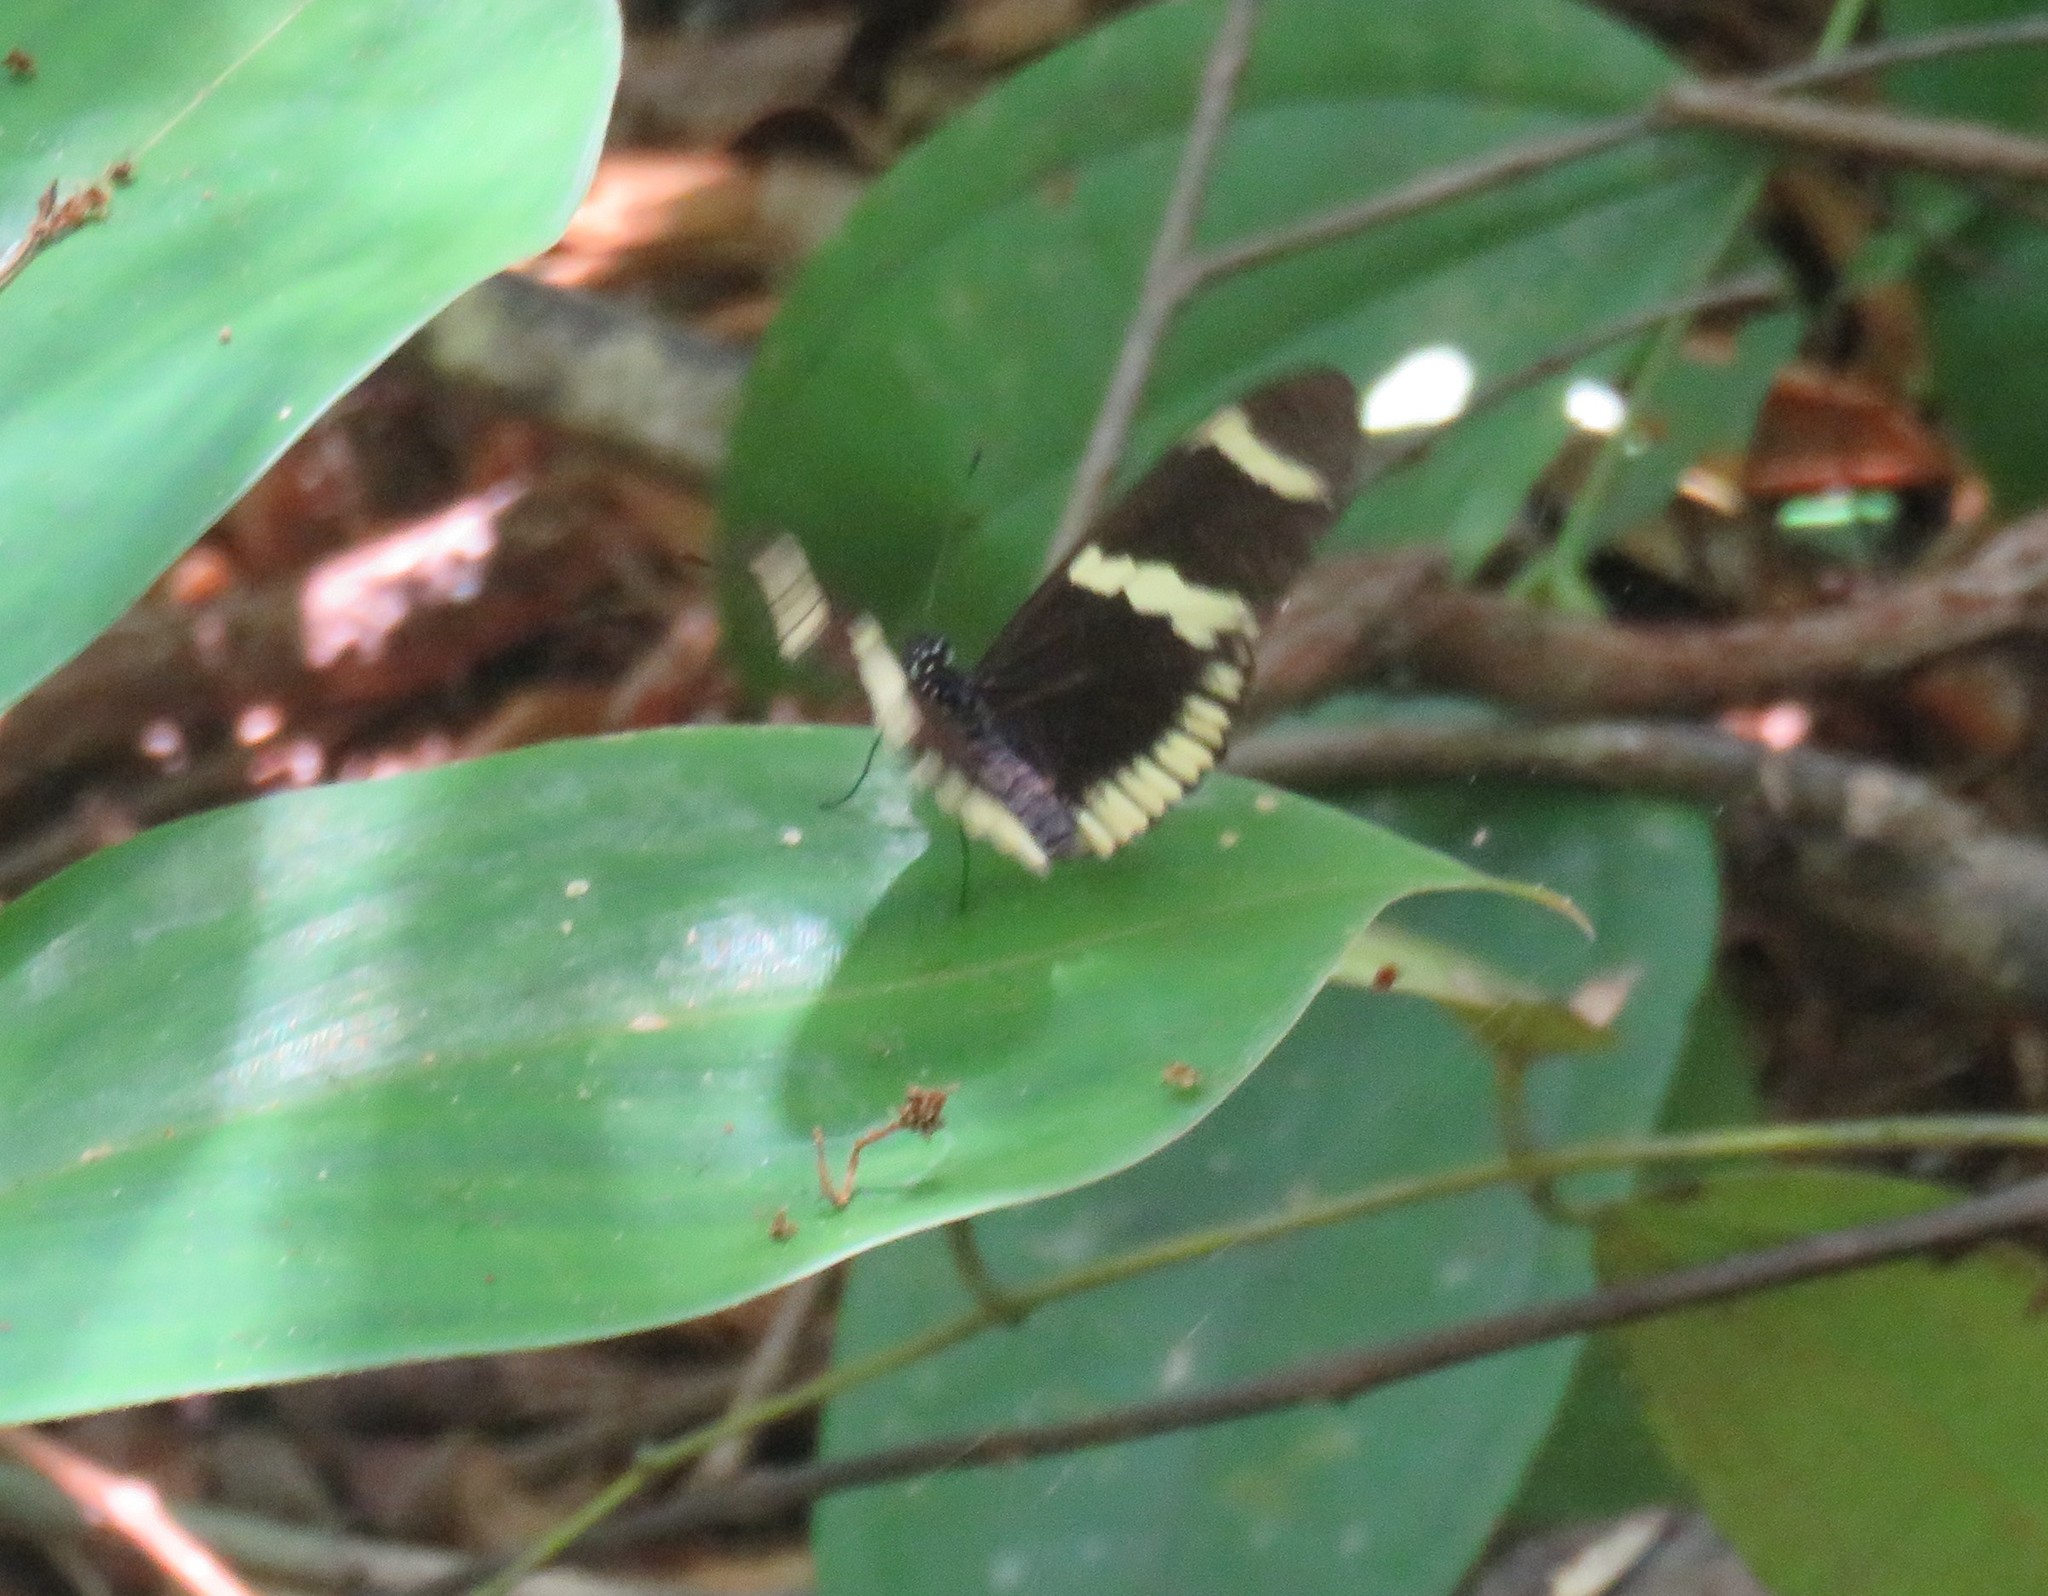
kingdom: Animalia
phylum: Arthropoda
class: Insecta
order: Lepidoptera
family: Nymphalidae
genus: Heliconius
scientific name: Heliconius sara
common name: Sara longwing
